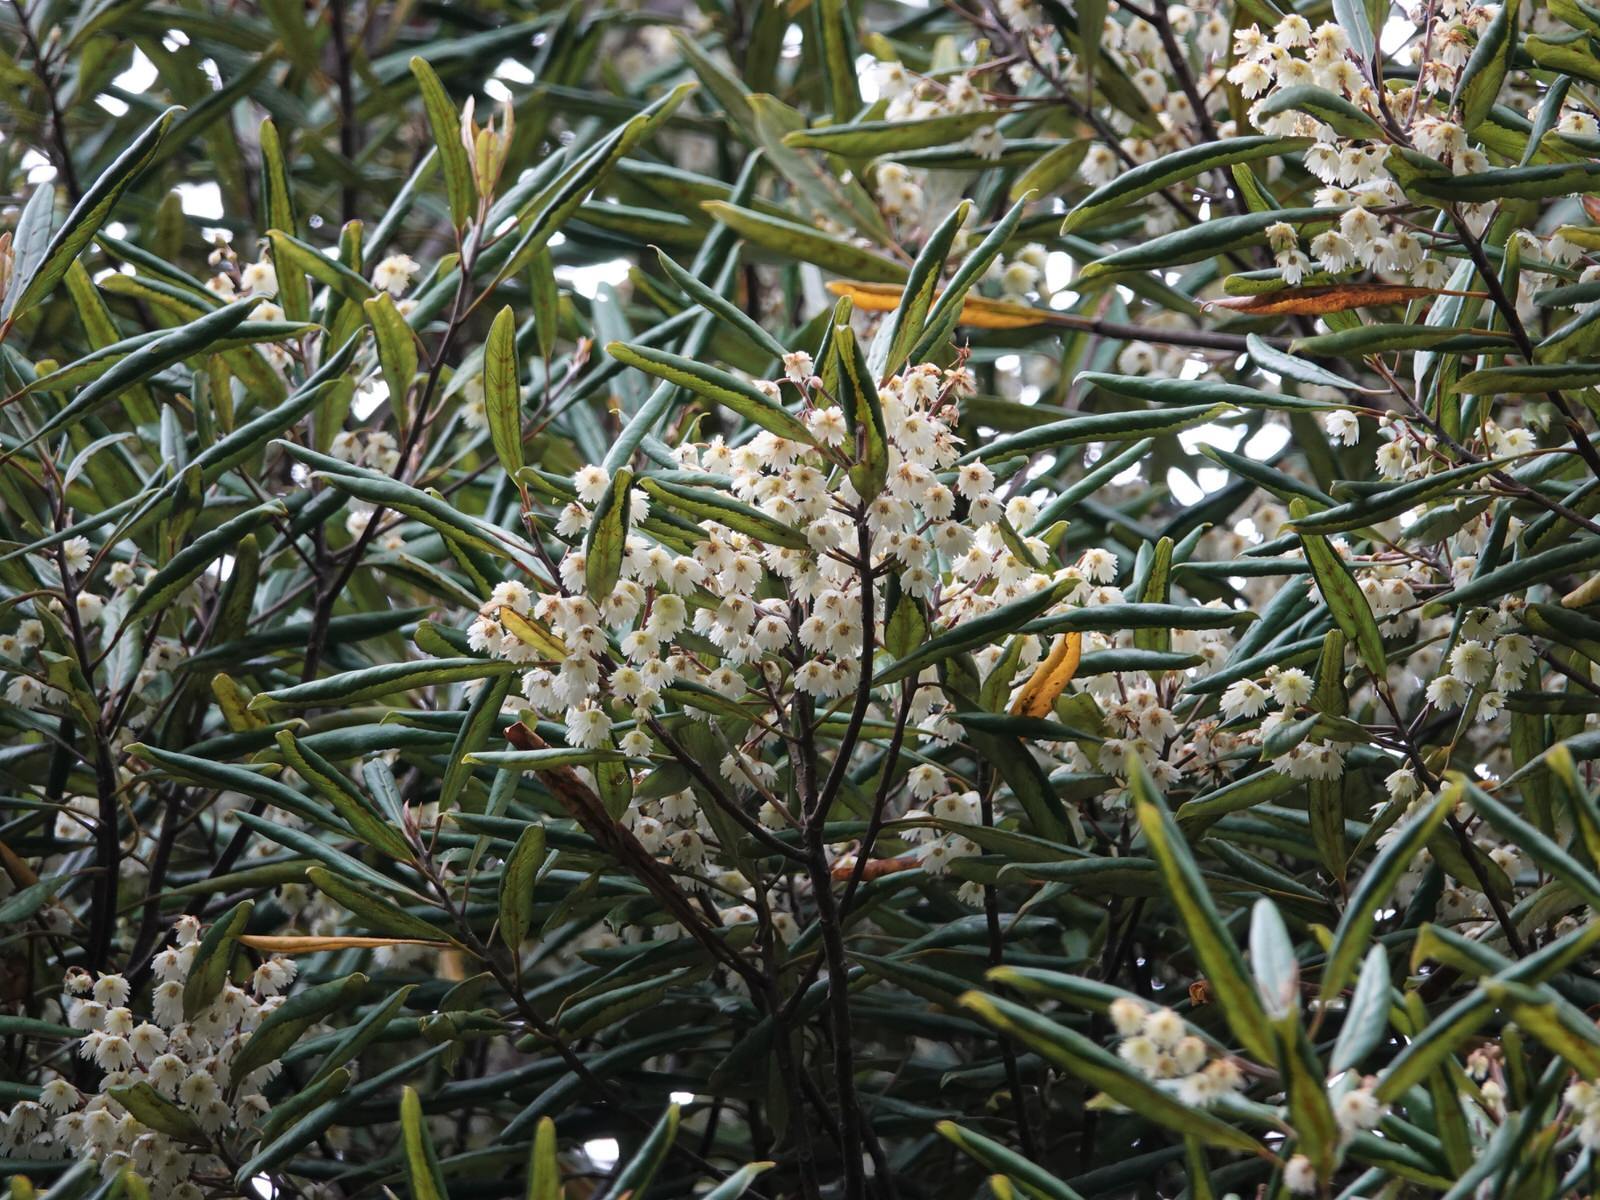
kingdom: Plantae
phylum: Tracheophyta
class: Magnoliopsida
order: Oxalidales
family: Elaeocarpaceae
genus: Elaeocarpus
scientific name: Elaeocarpus dentatus
